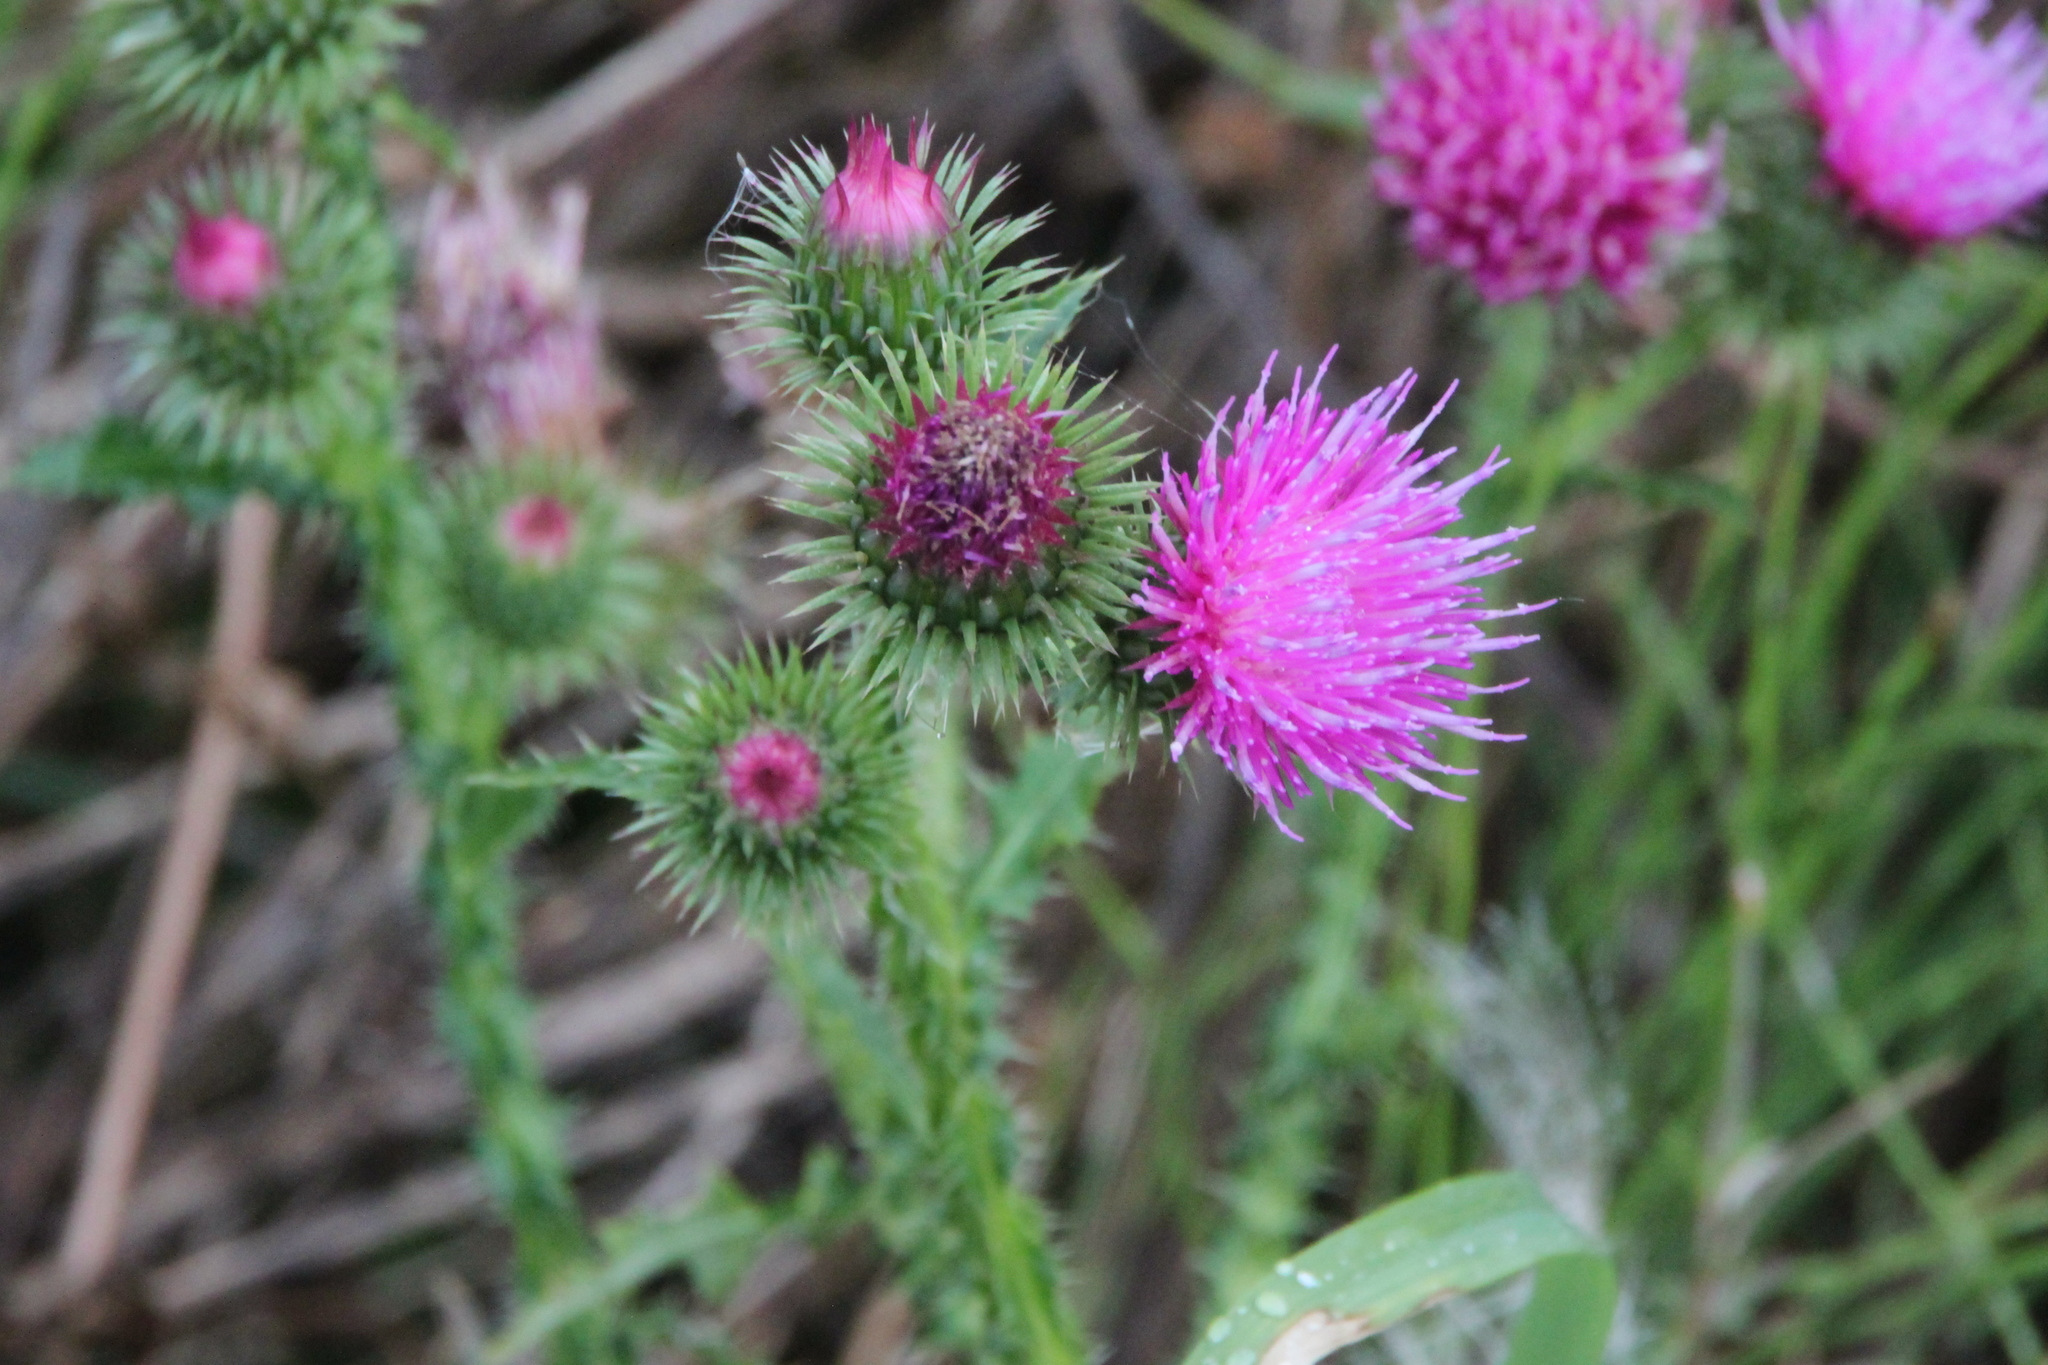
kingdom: Plantae
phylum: Tracheophyta
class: Magnoliopsida
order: Asterales
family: Asteraceae
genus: Carduus
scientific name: Carduus crispus
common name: Welted thistle
